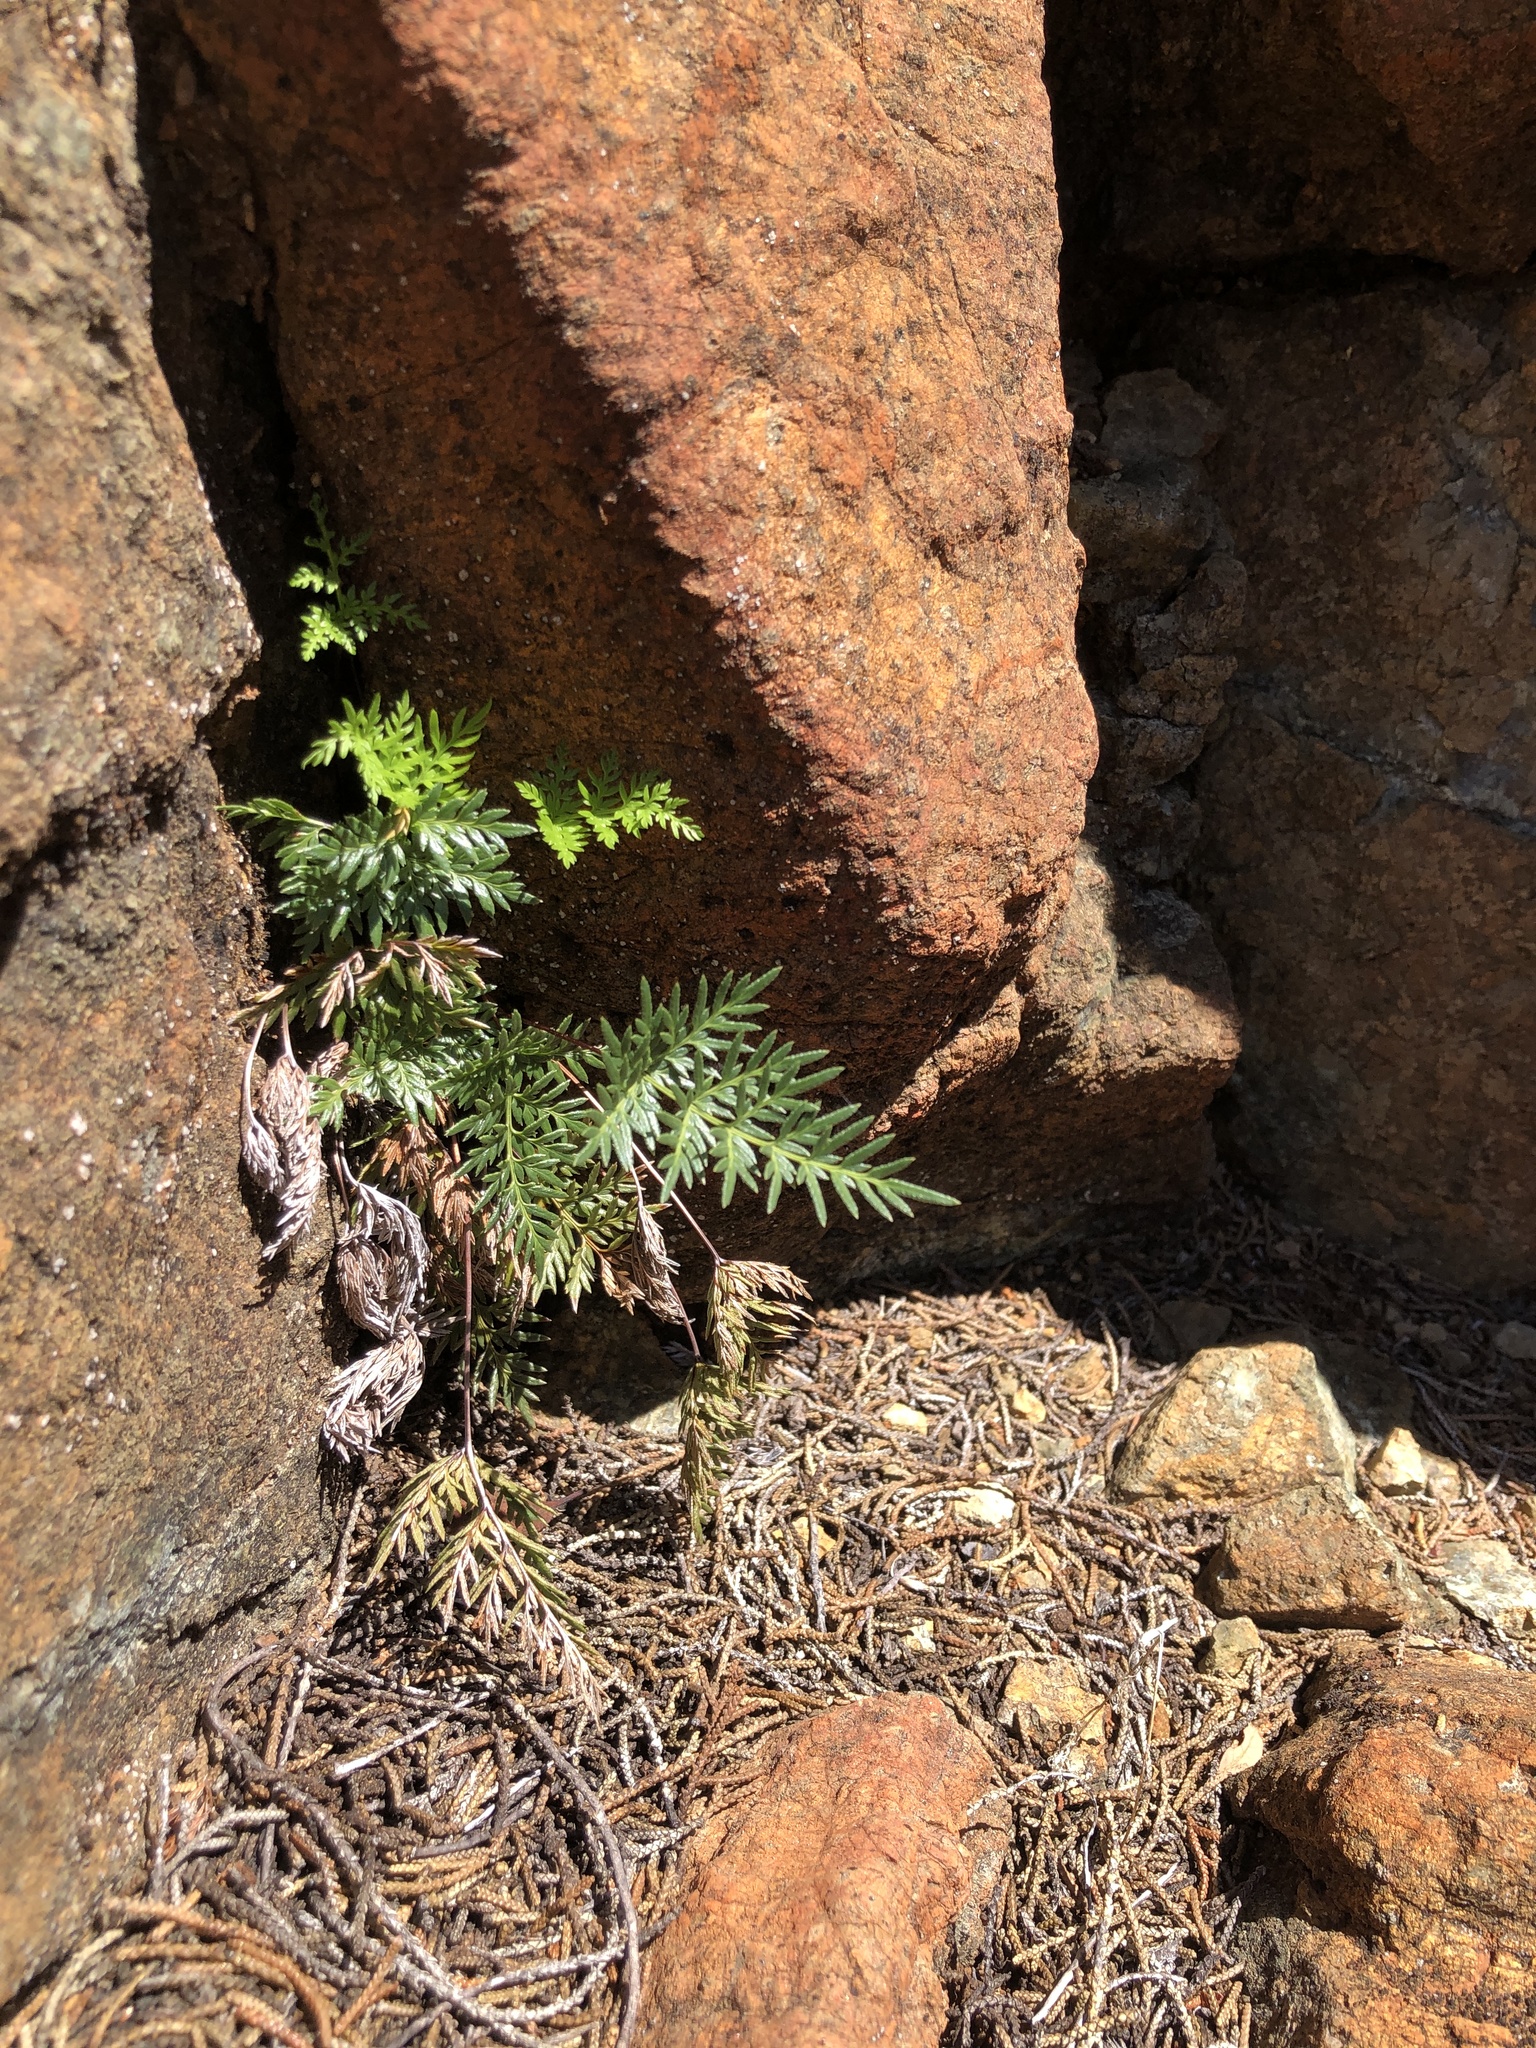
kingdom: Plantae
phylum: Tracheophyta
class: Polypodiopsida
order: Polypodiales
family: Pteridaceae
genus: Aspidotis
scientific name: Aspidotis densa
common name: Indian's dream
